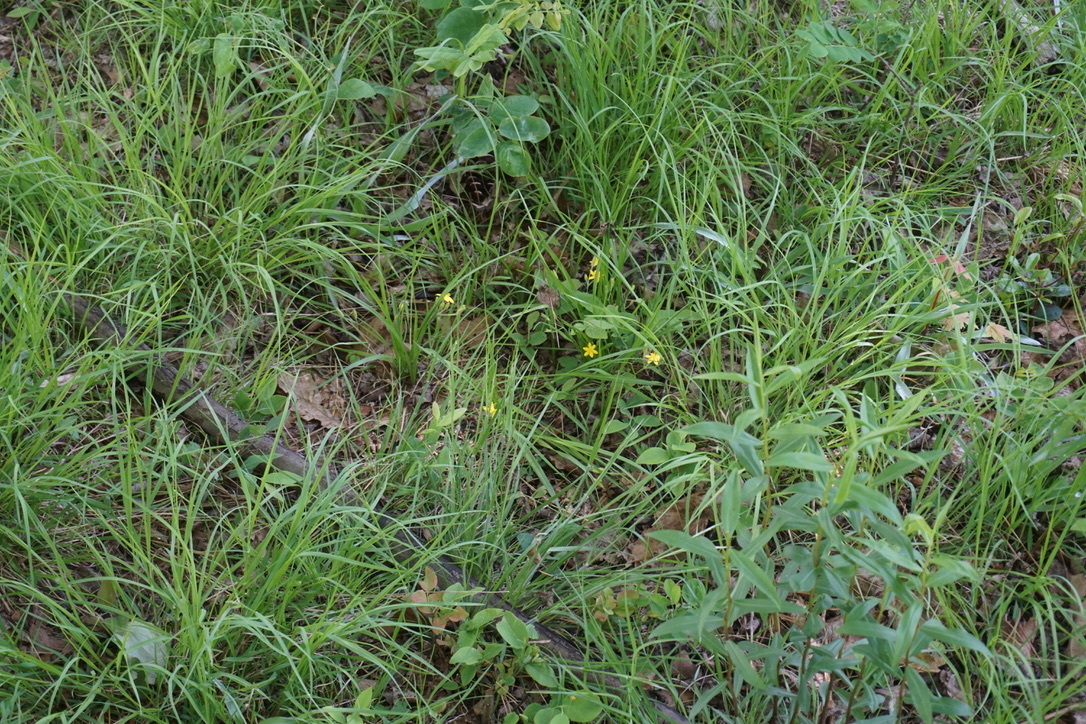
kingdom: Plantae
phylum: Tracheophyta
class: Liliopsida
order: Asparagales
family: Hypoxidaceae
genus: Hypoxis
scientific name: Hypoxis hirsuta
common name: Common goldstar
